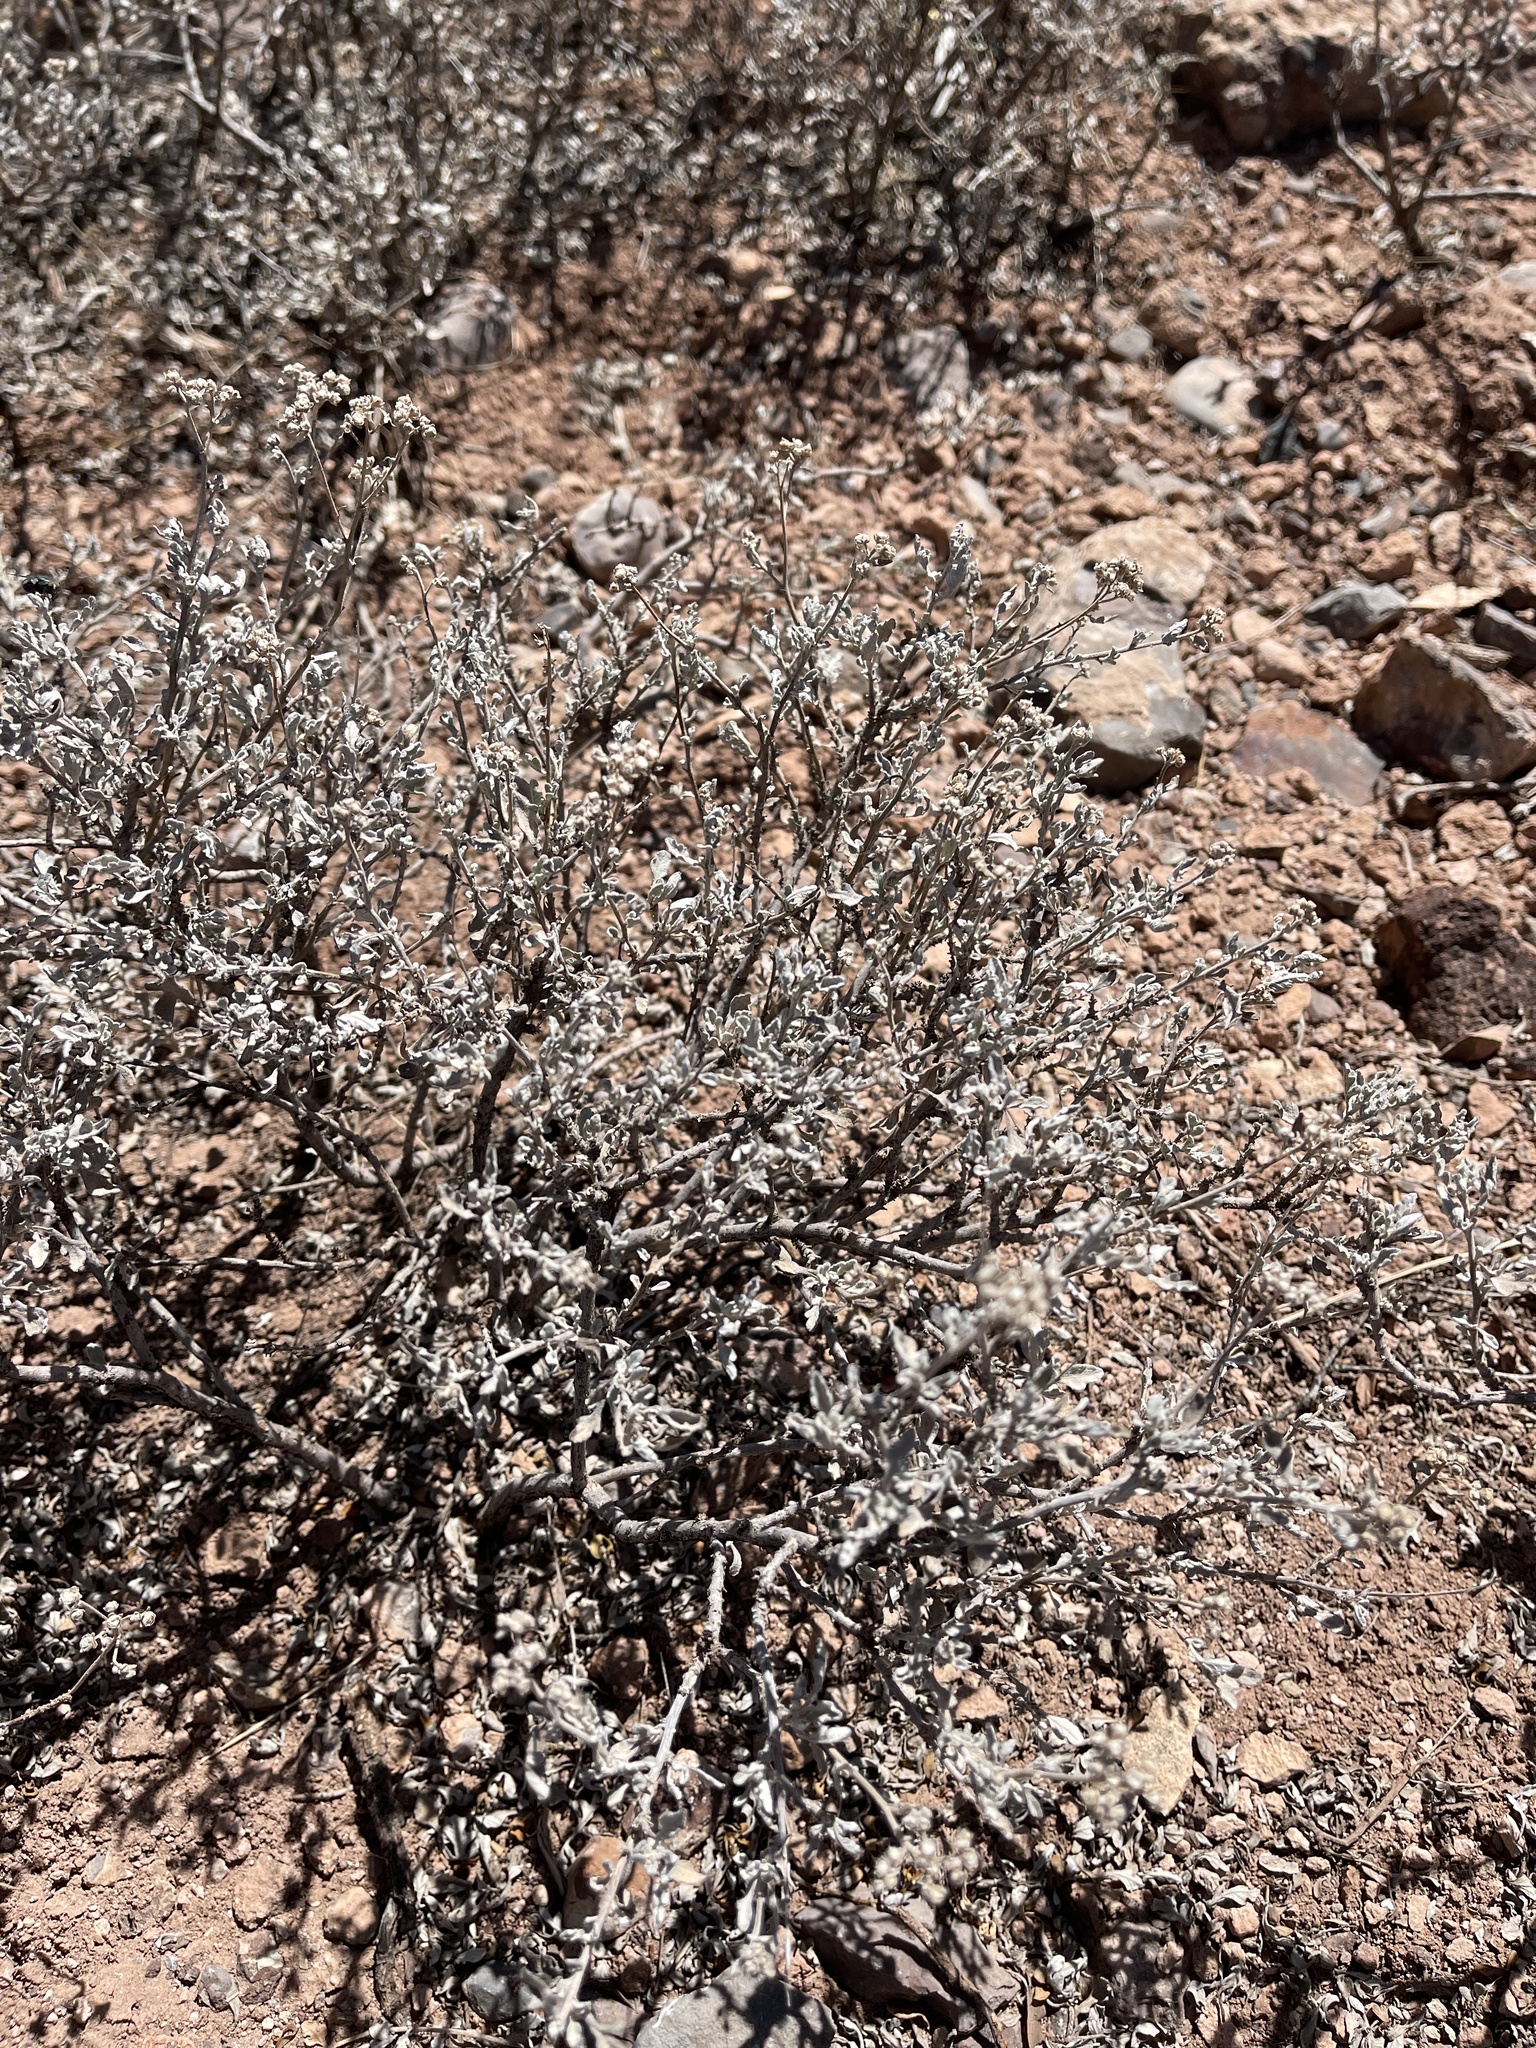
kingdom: Plantae
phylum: Tracheophyta
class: Magnoliopsida
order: Asterales
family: Asteraceae
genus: Parthenium
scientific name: Parthenium incanum
